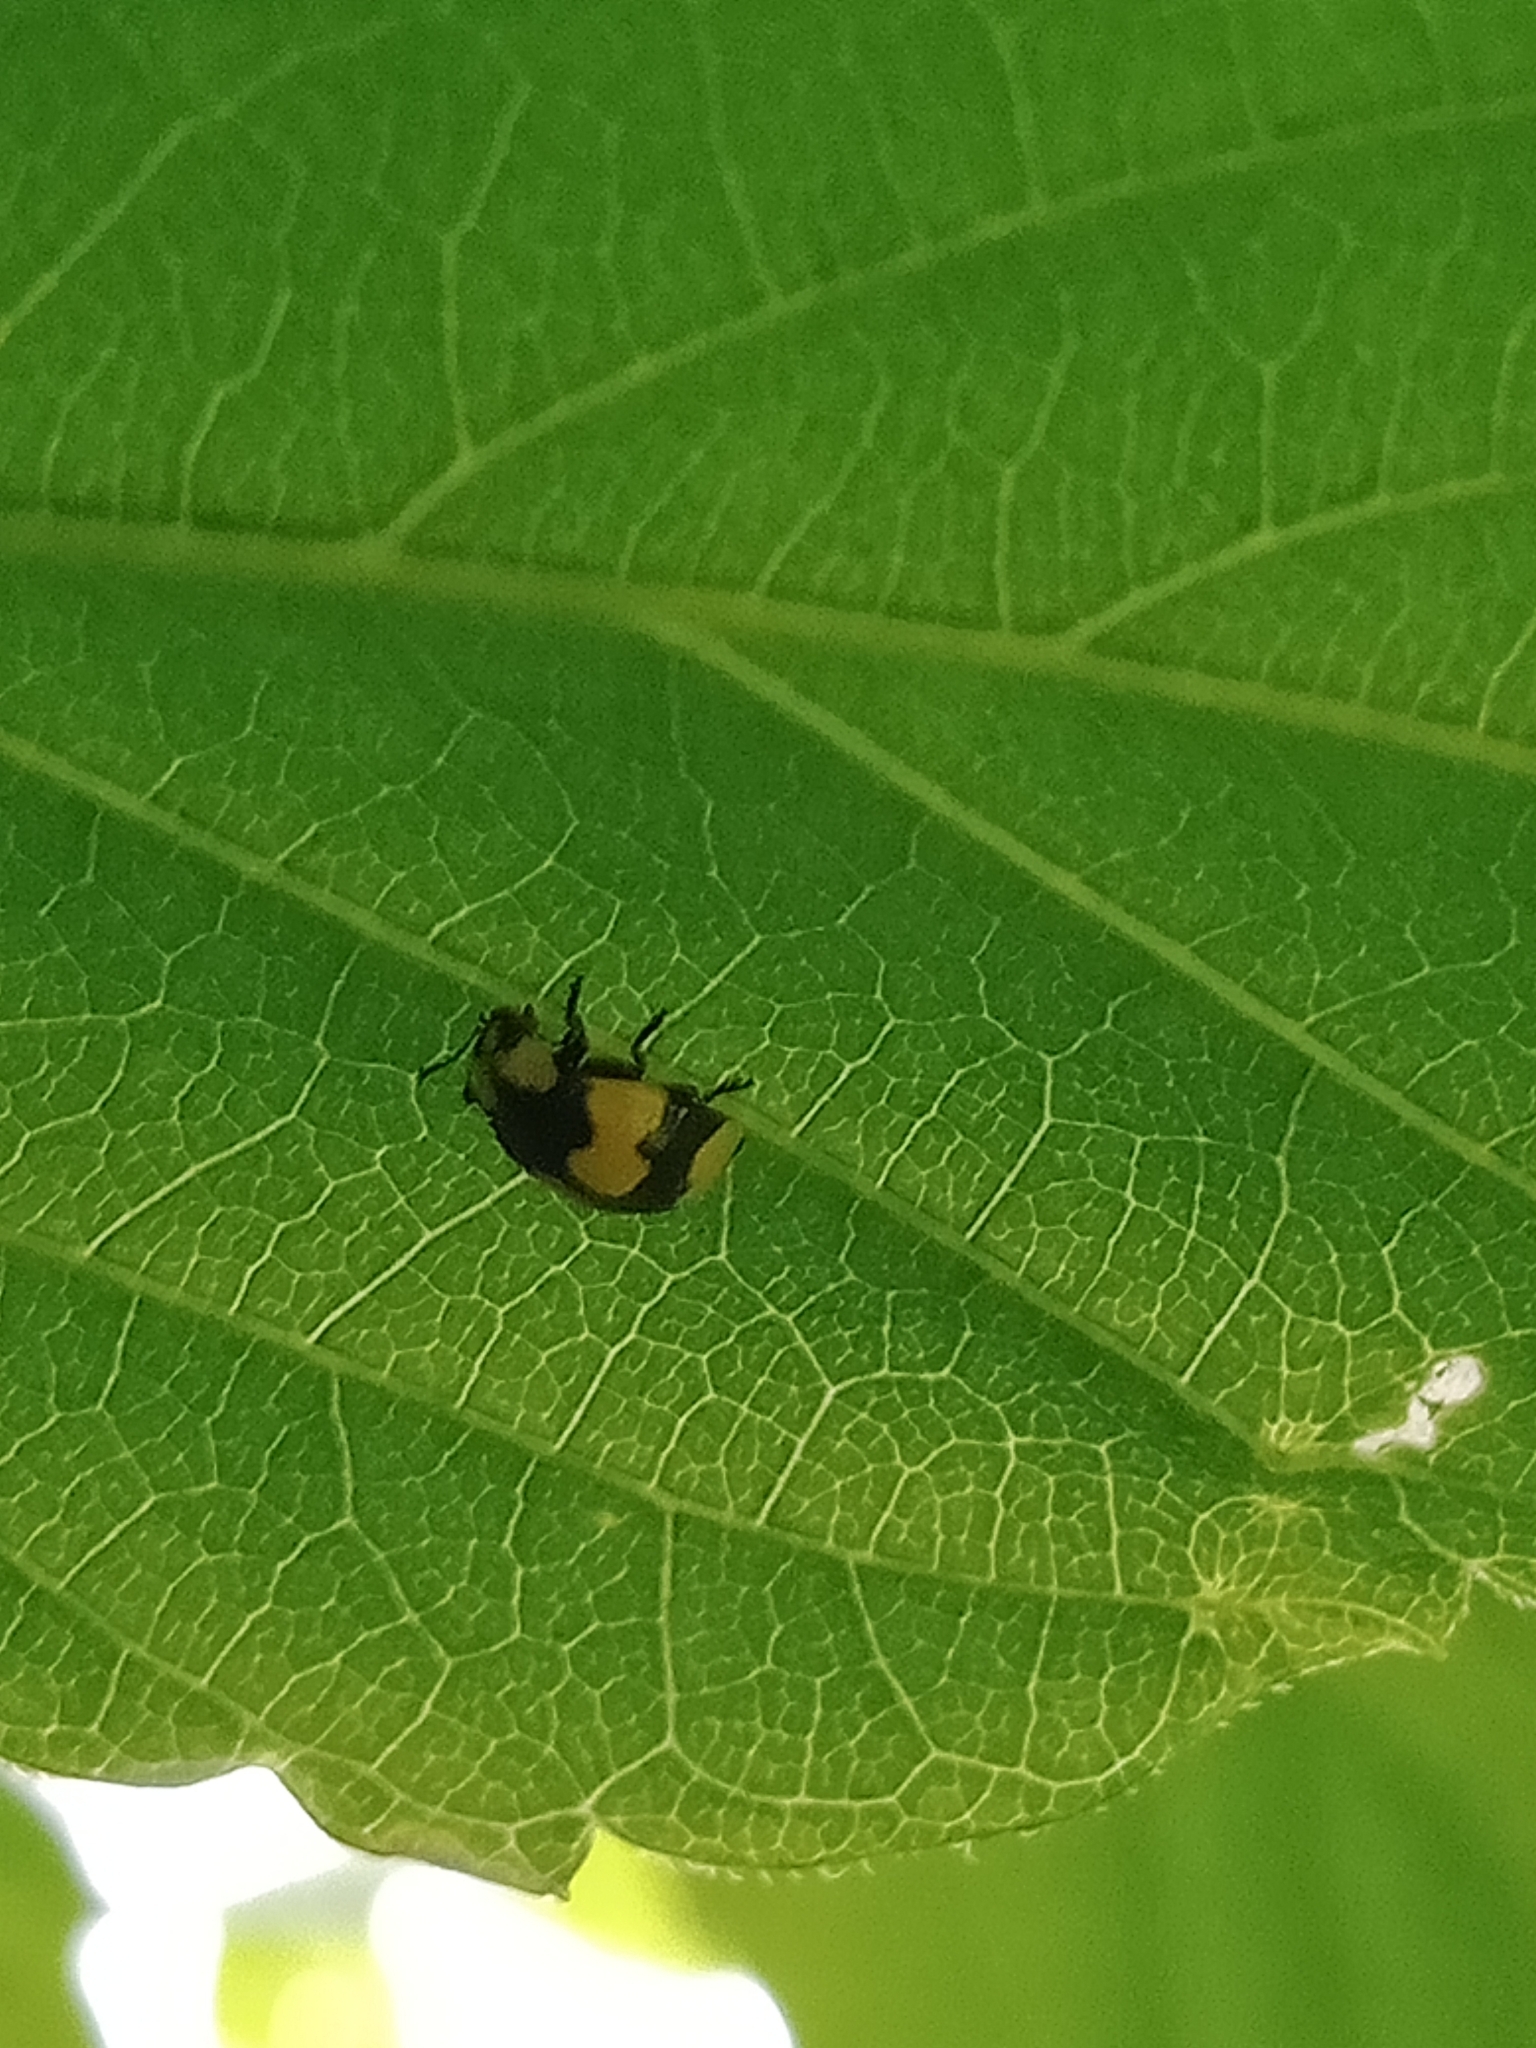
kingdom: Plantae
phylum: Tracheophyta
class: Magnoliopsida
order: Sapindales
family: Sapindaceae
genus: Acer
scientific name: Acer negundo
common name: Ashleaf maple
